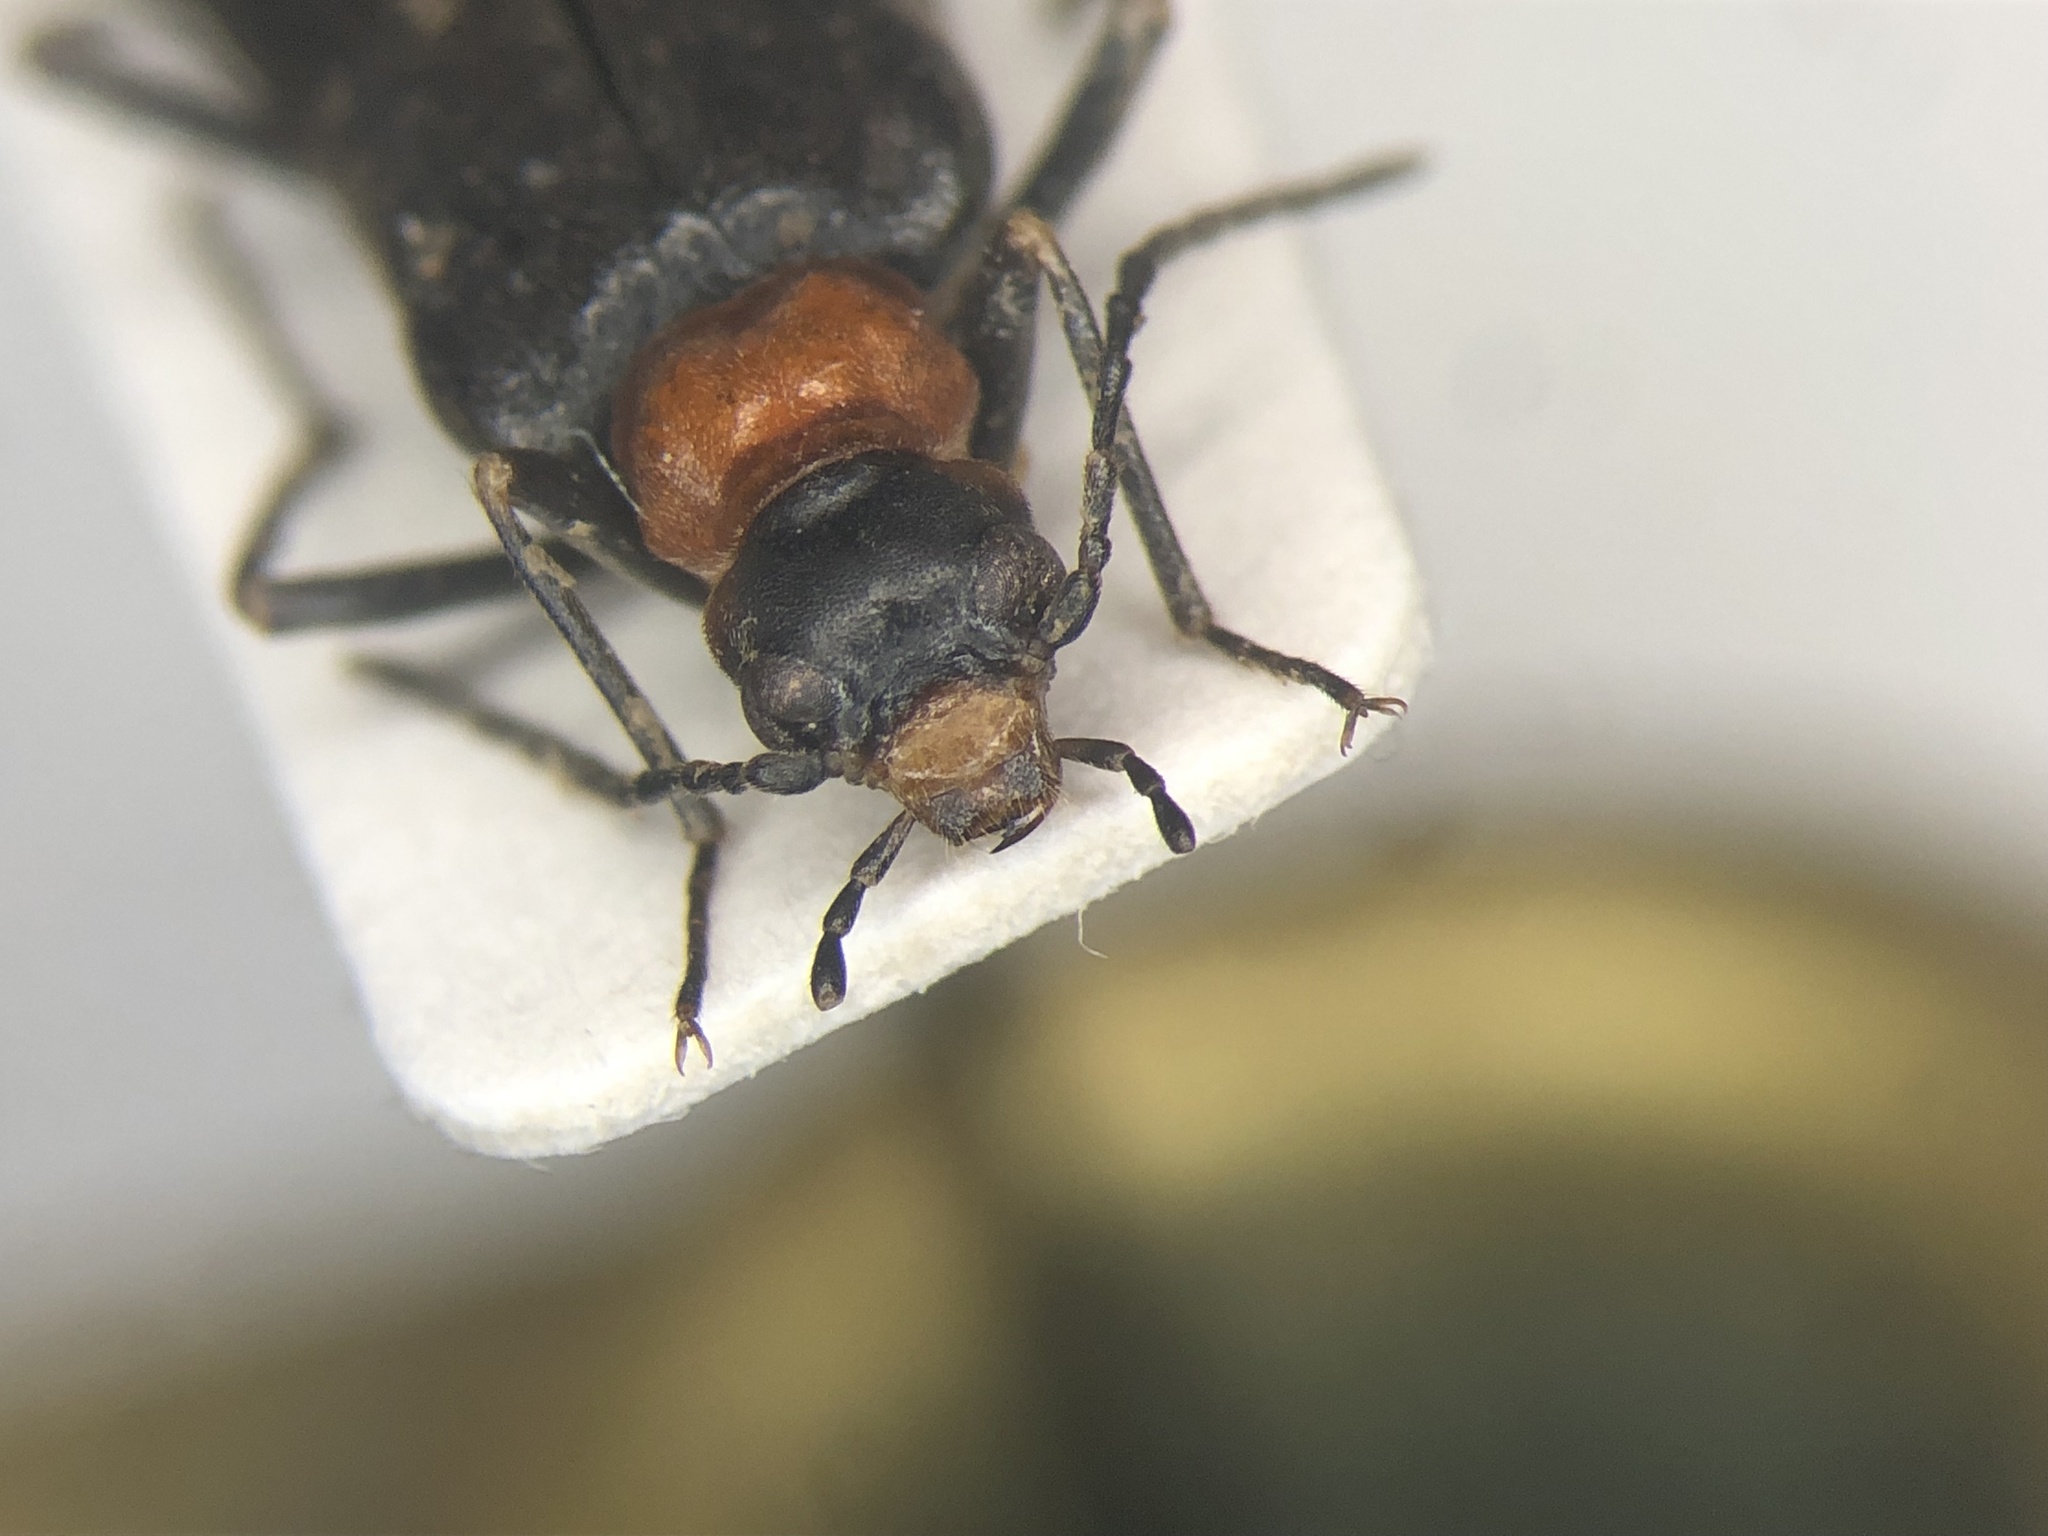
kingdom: Animalia
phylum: Arthropoda
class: Insecta
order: Coleoptera
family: Stenotrachelidae
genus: Nematoplus
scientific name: Nematoplus collaris
